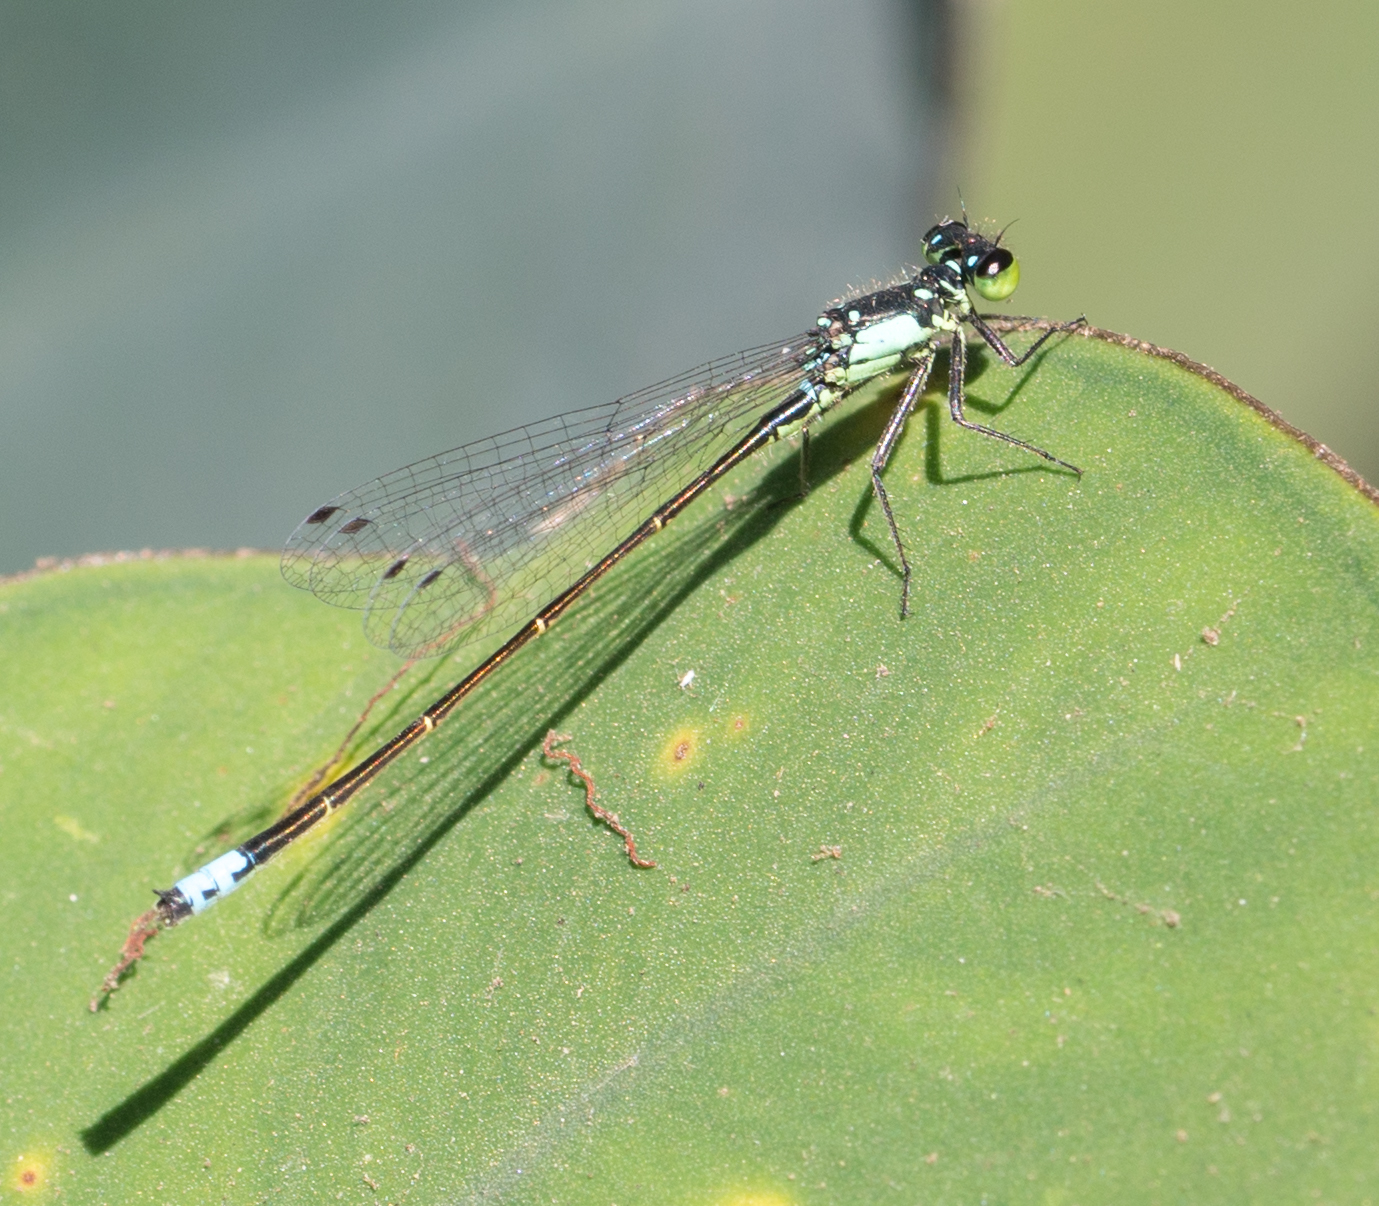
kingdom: Animalia
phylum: Arthropoda
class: Insecta
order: Odonata
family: Coenagrionidae
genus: Ischnura
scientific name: Ischnura cervula
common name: Pacific forktail
